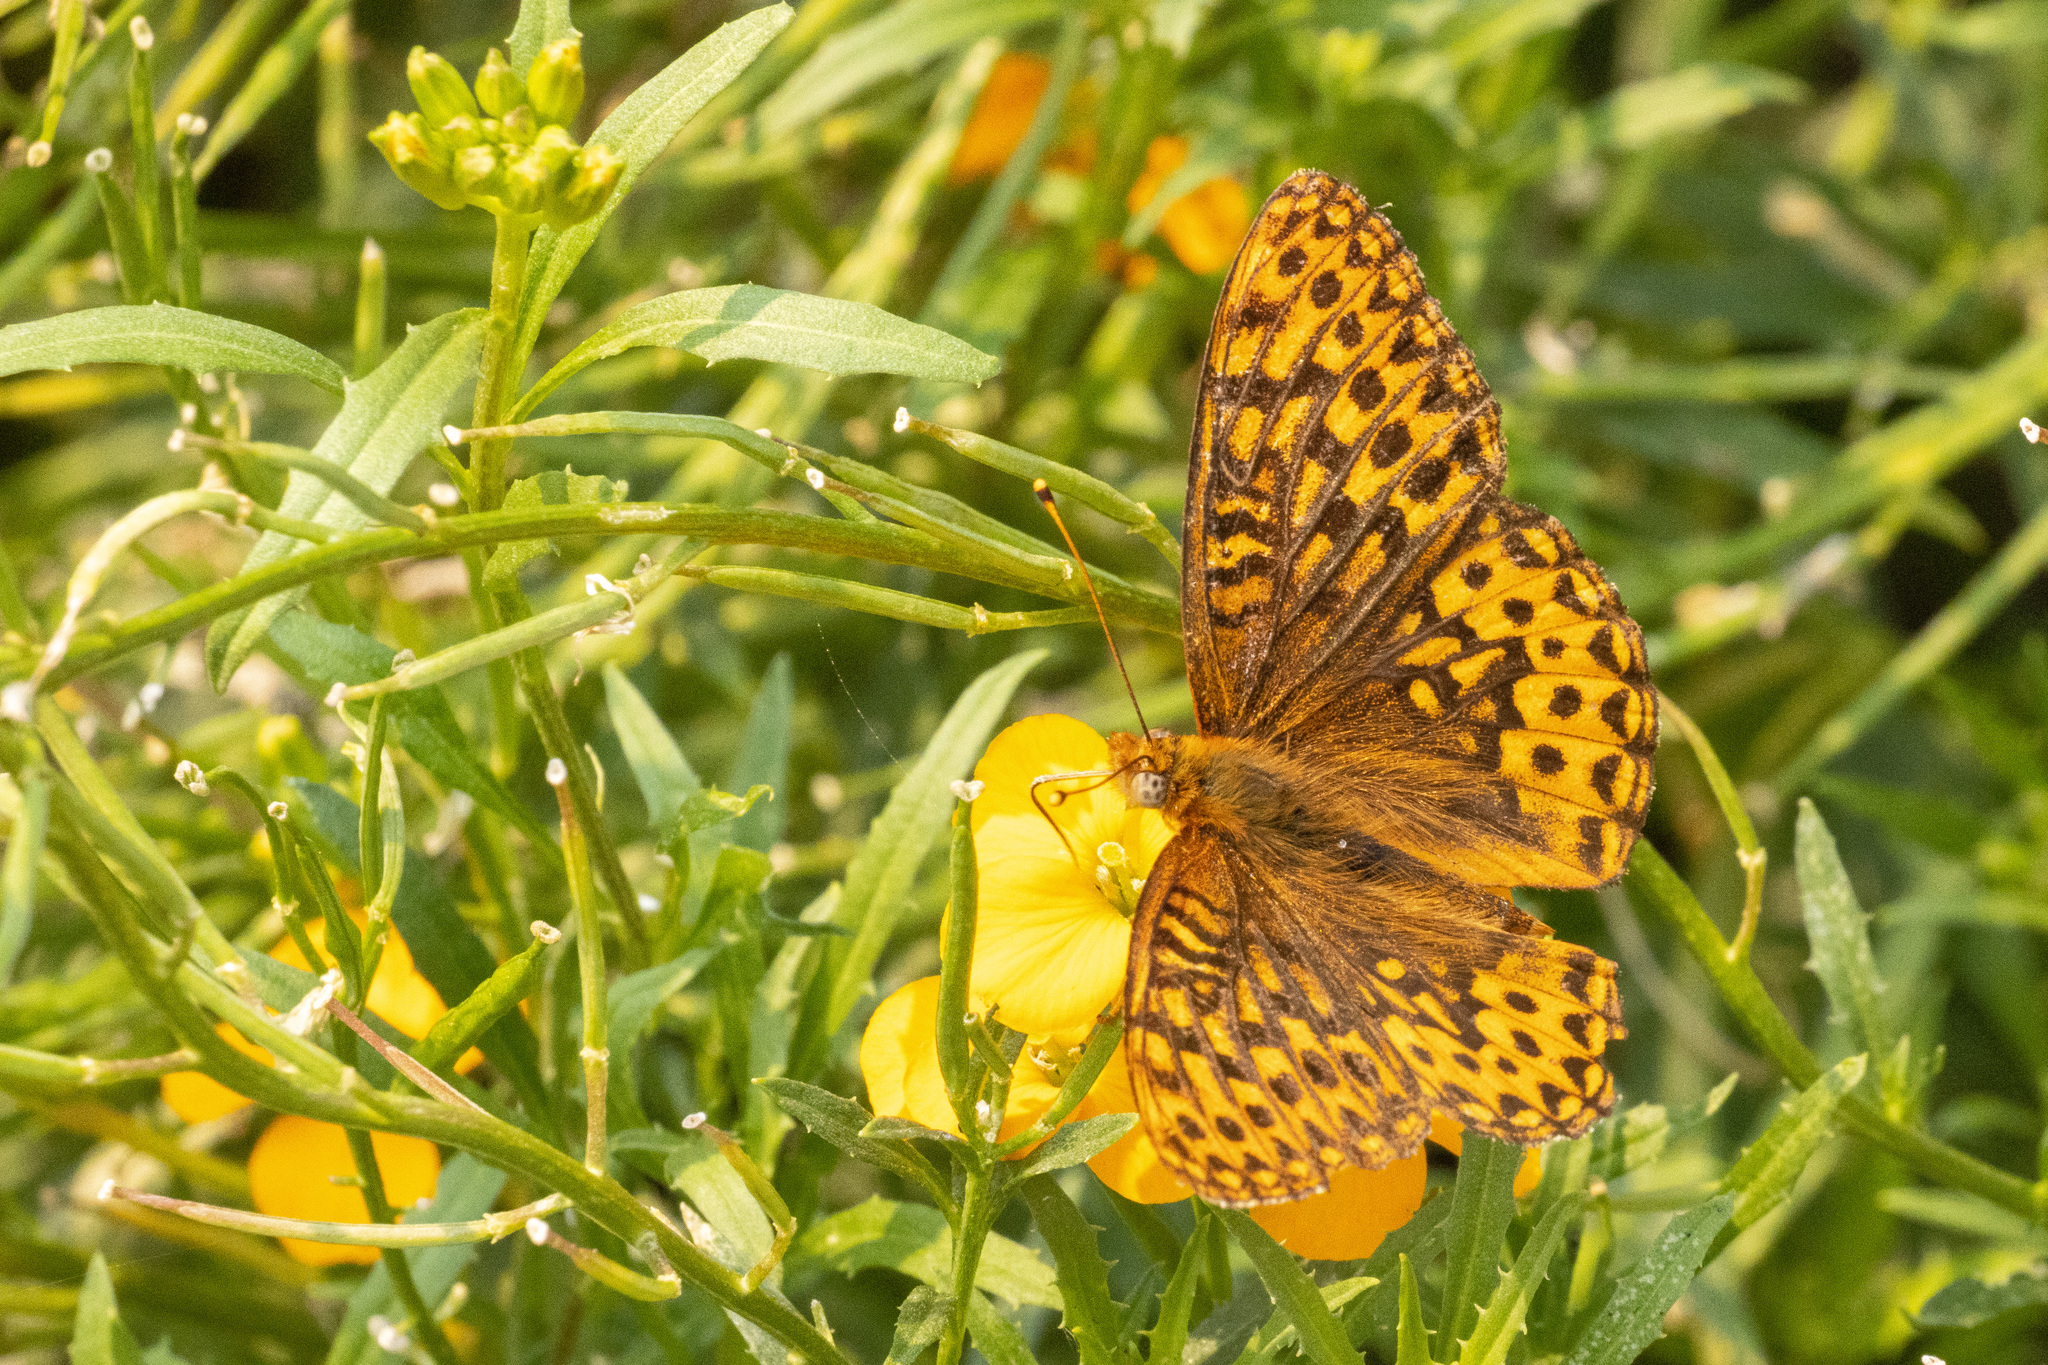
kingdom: Animalia
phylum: Arthropoda
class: Insecta
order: Lepidoptera
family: Nymphalidae
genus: Speyeria
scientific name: Speyeria hydaspe
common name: Hydaspe fritillary
